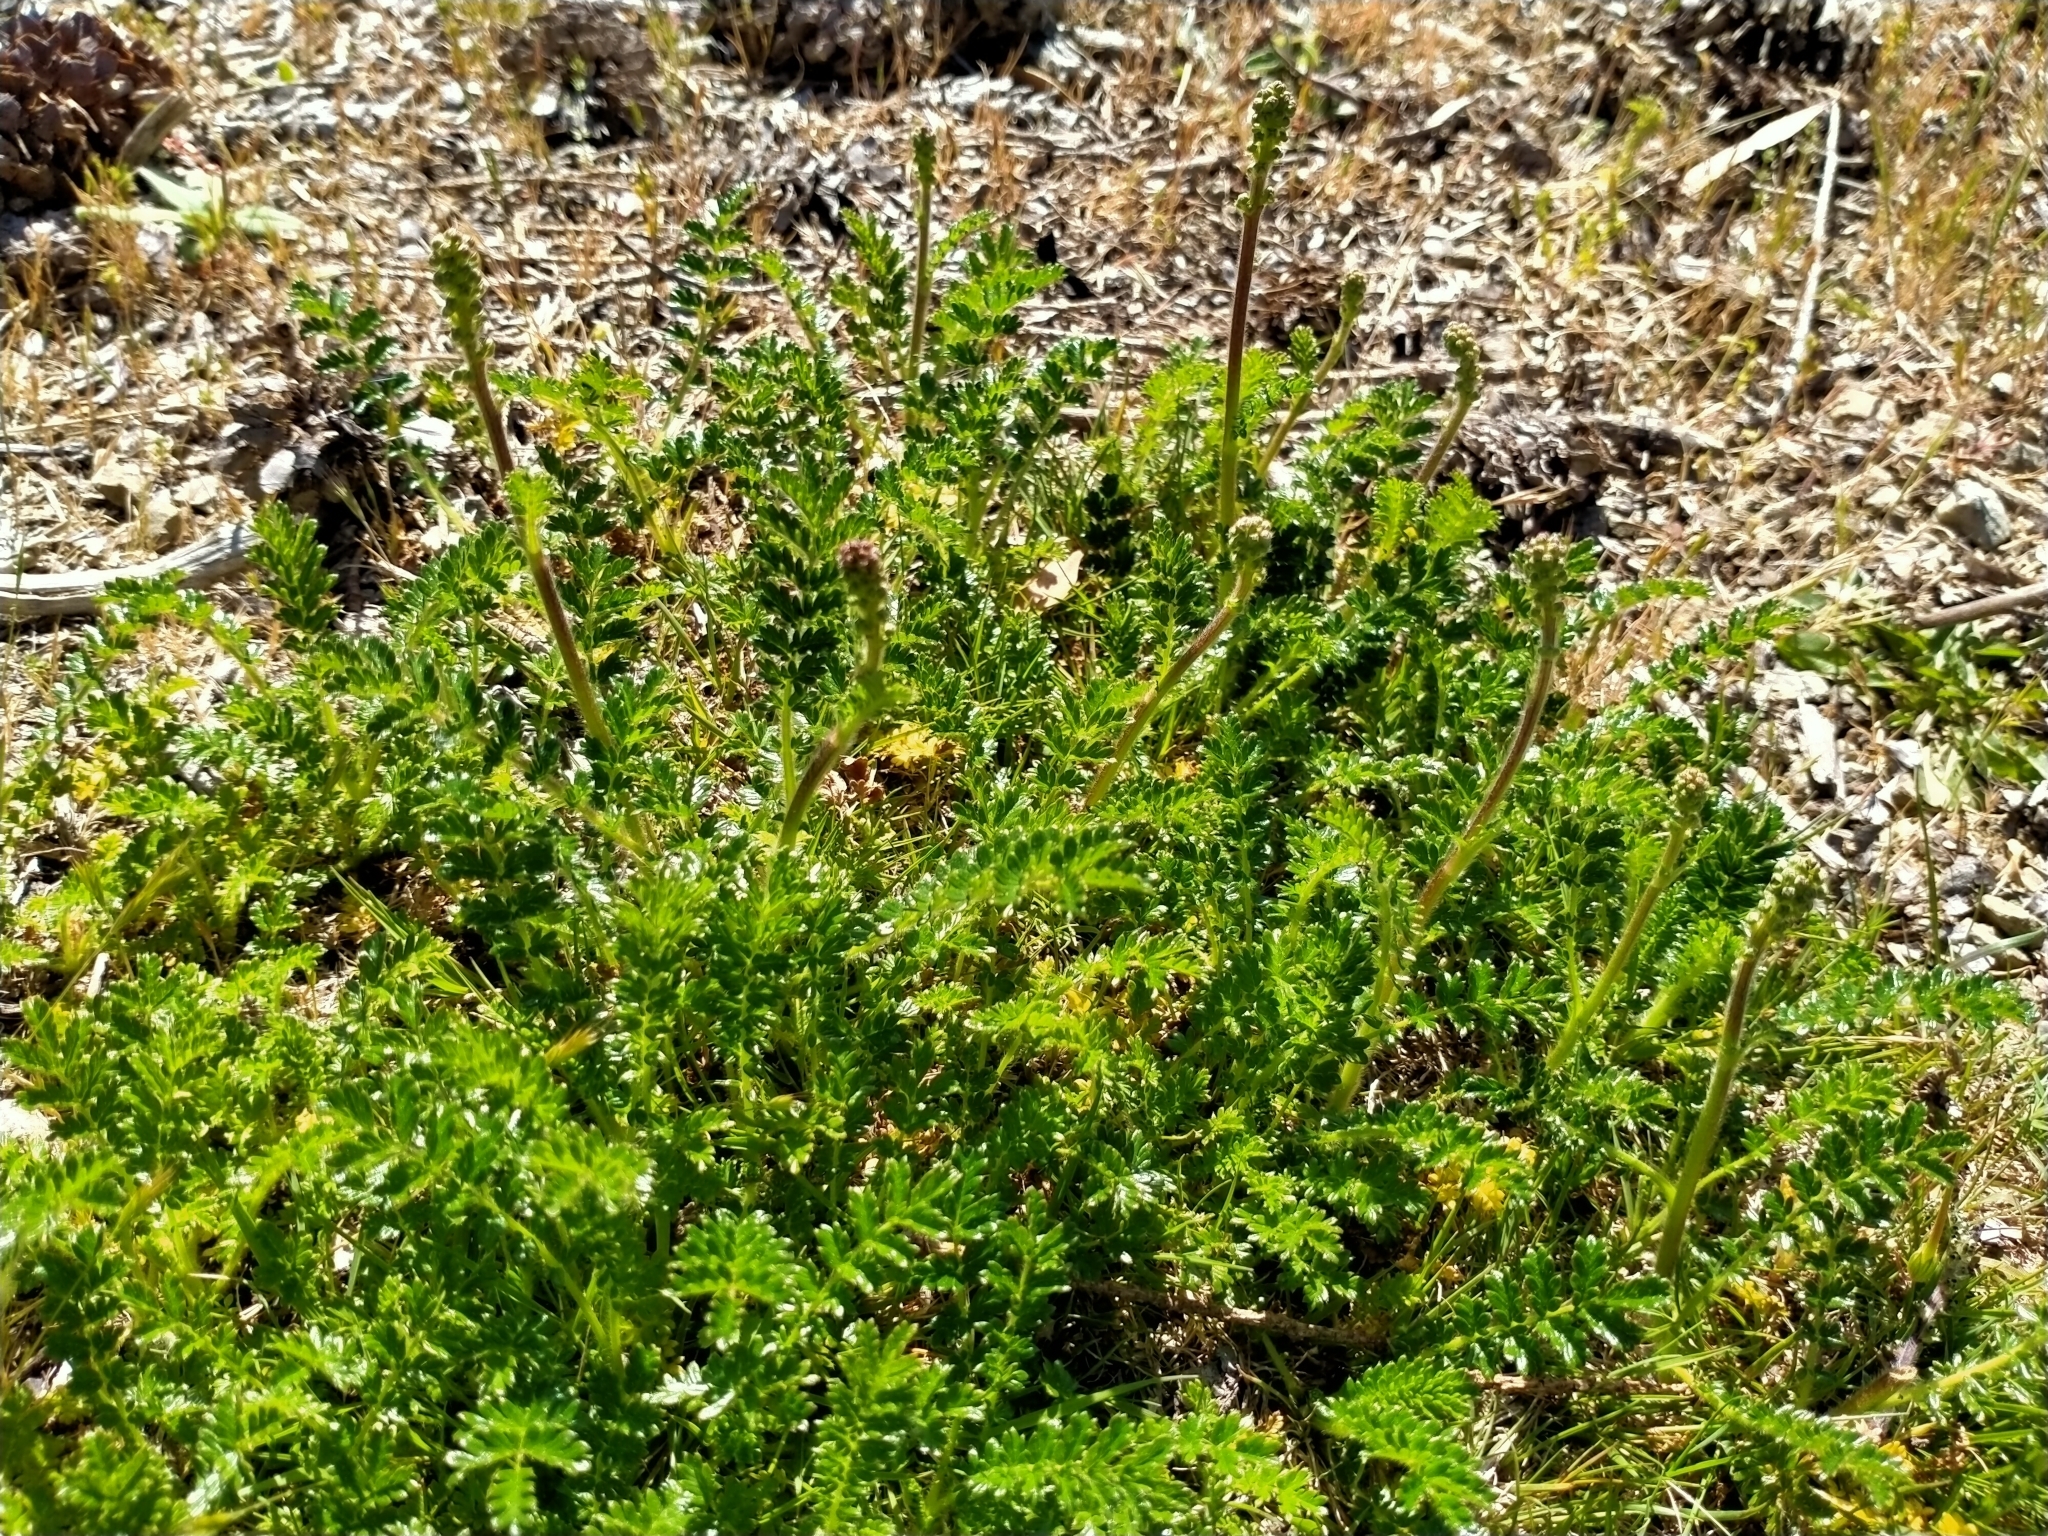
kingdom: Plantae
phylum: Tracheophyta
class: Magnoliopsida
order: Rosales
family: Rosaceae
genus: Acaena
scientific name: Acaena agnipila
